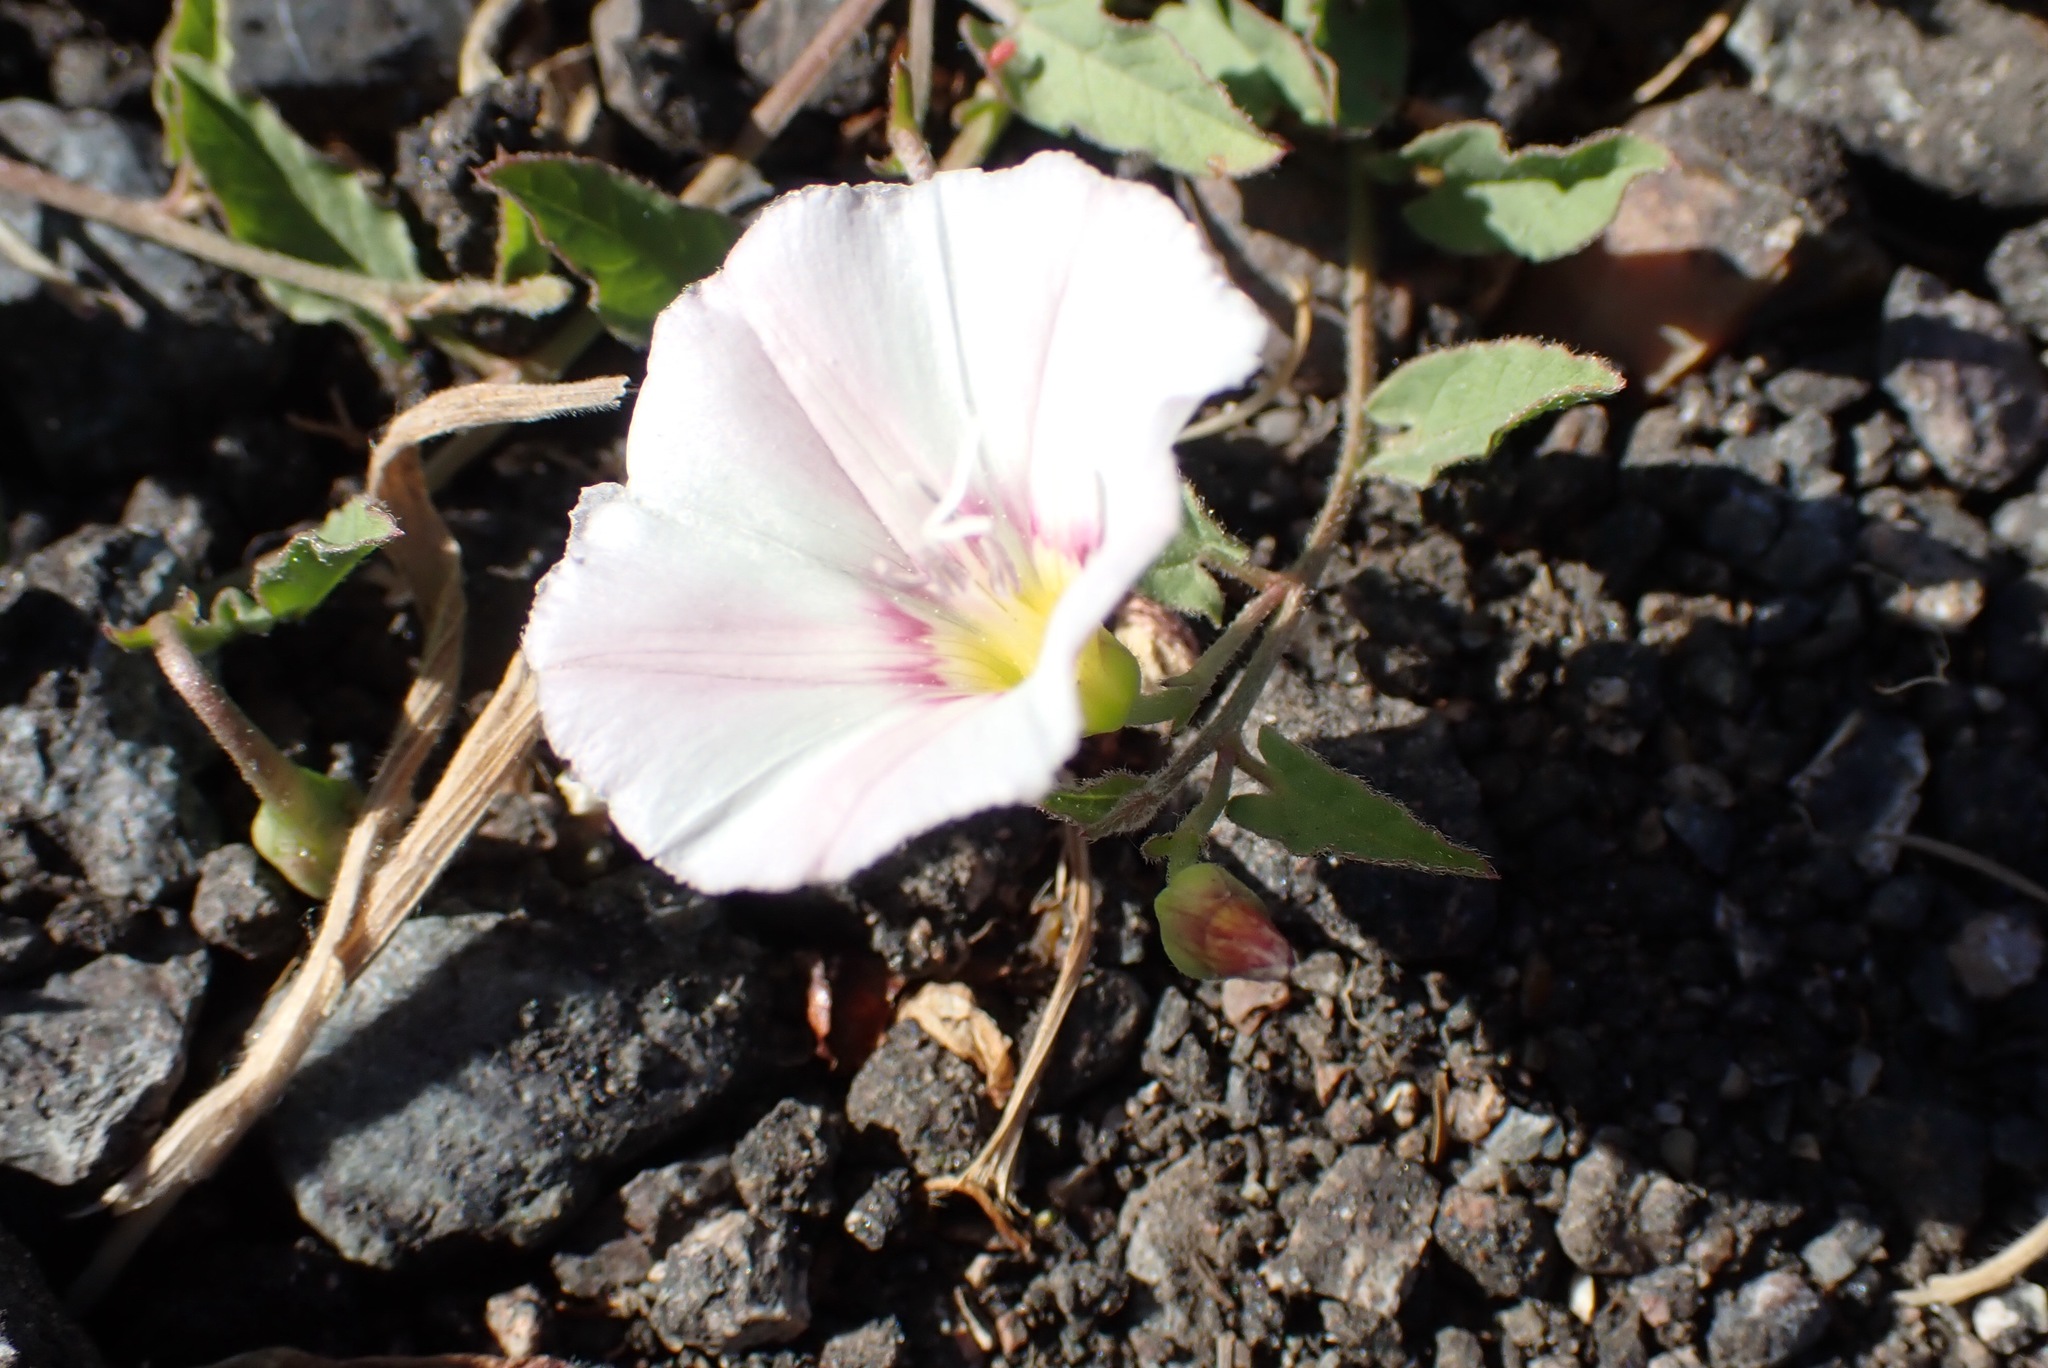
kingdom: Plantae
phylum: Tracheophyta
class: Magnoliopsida
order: Solanales
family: Convolvulaceae
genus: Convolvulus
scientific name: Convolvulus arvensis
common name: Field bindweed
